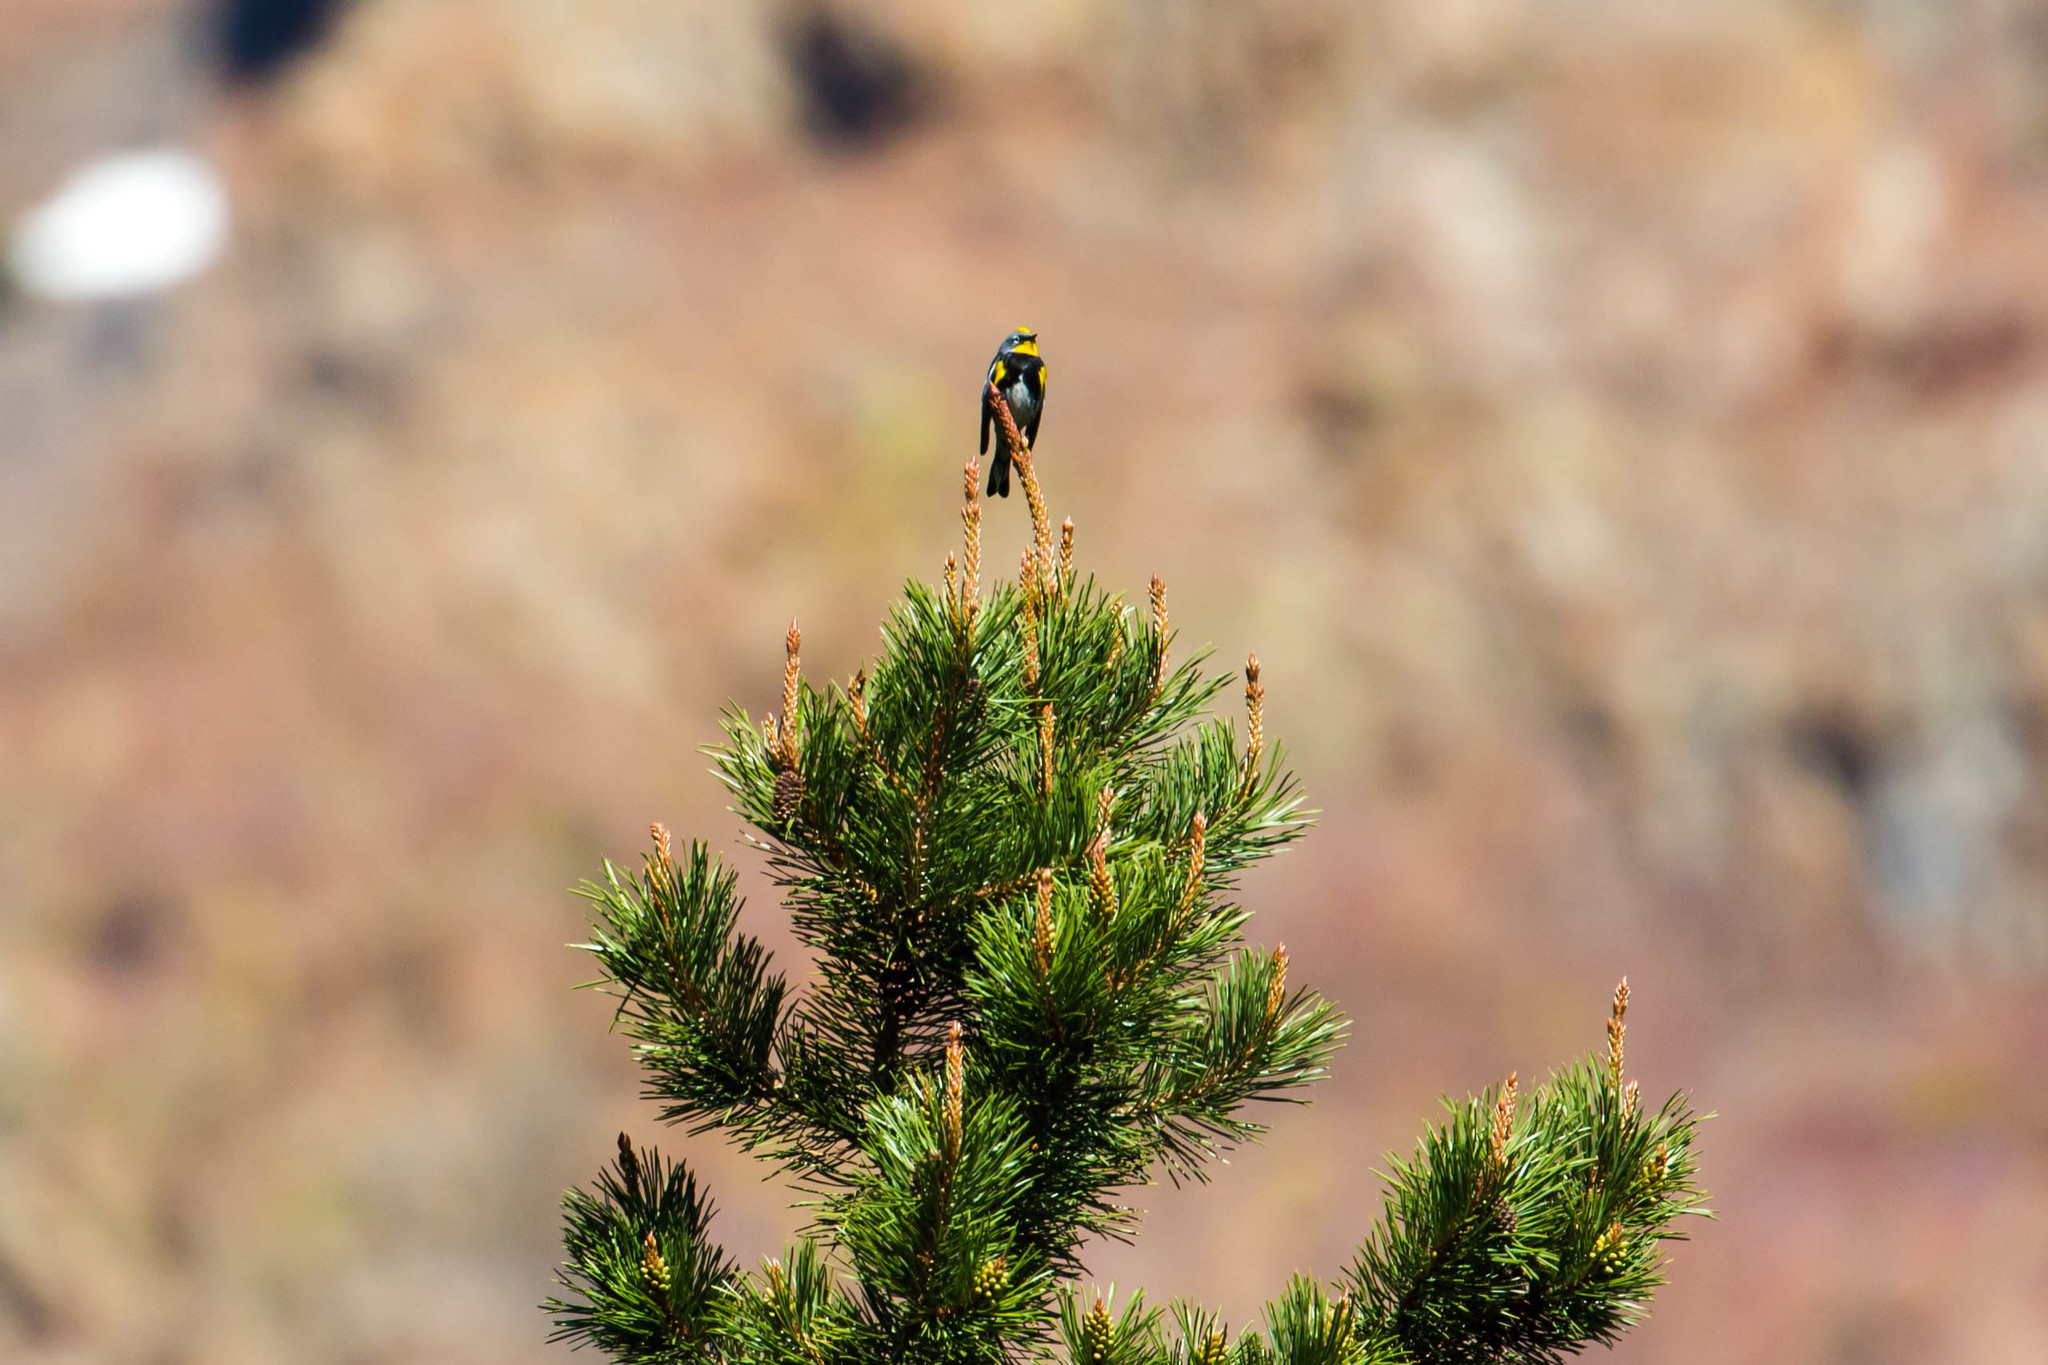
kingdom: Animalia
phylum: Chordata
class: Aves
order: Passeriformes
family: Parulidae
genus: Setophaga
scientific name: Setophaga auduboni
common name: Audubon's warbler
